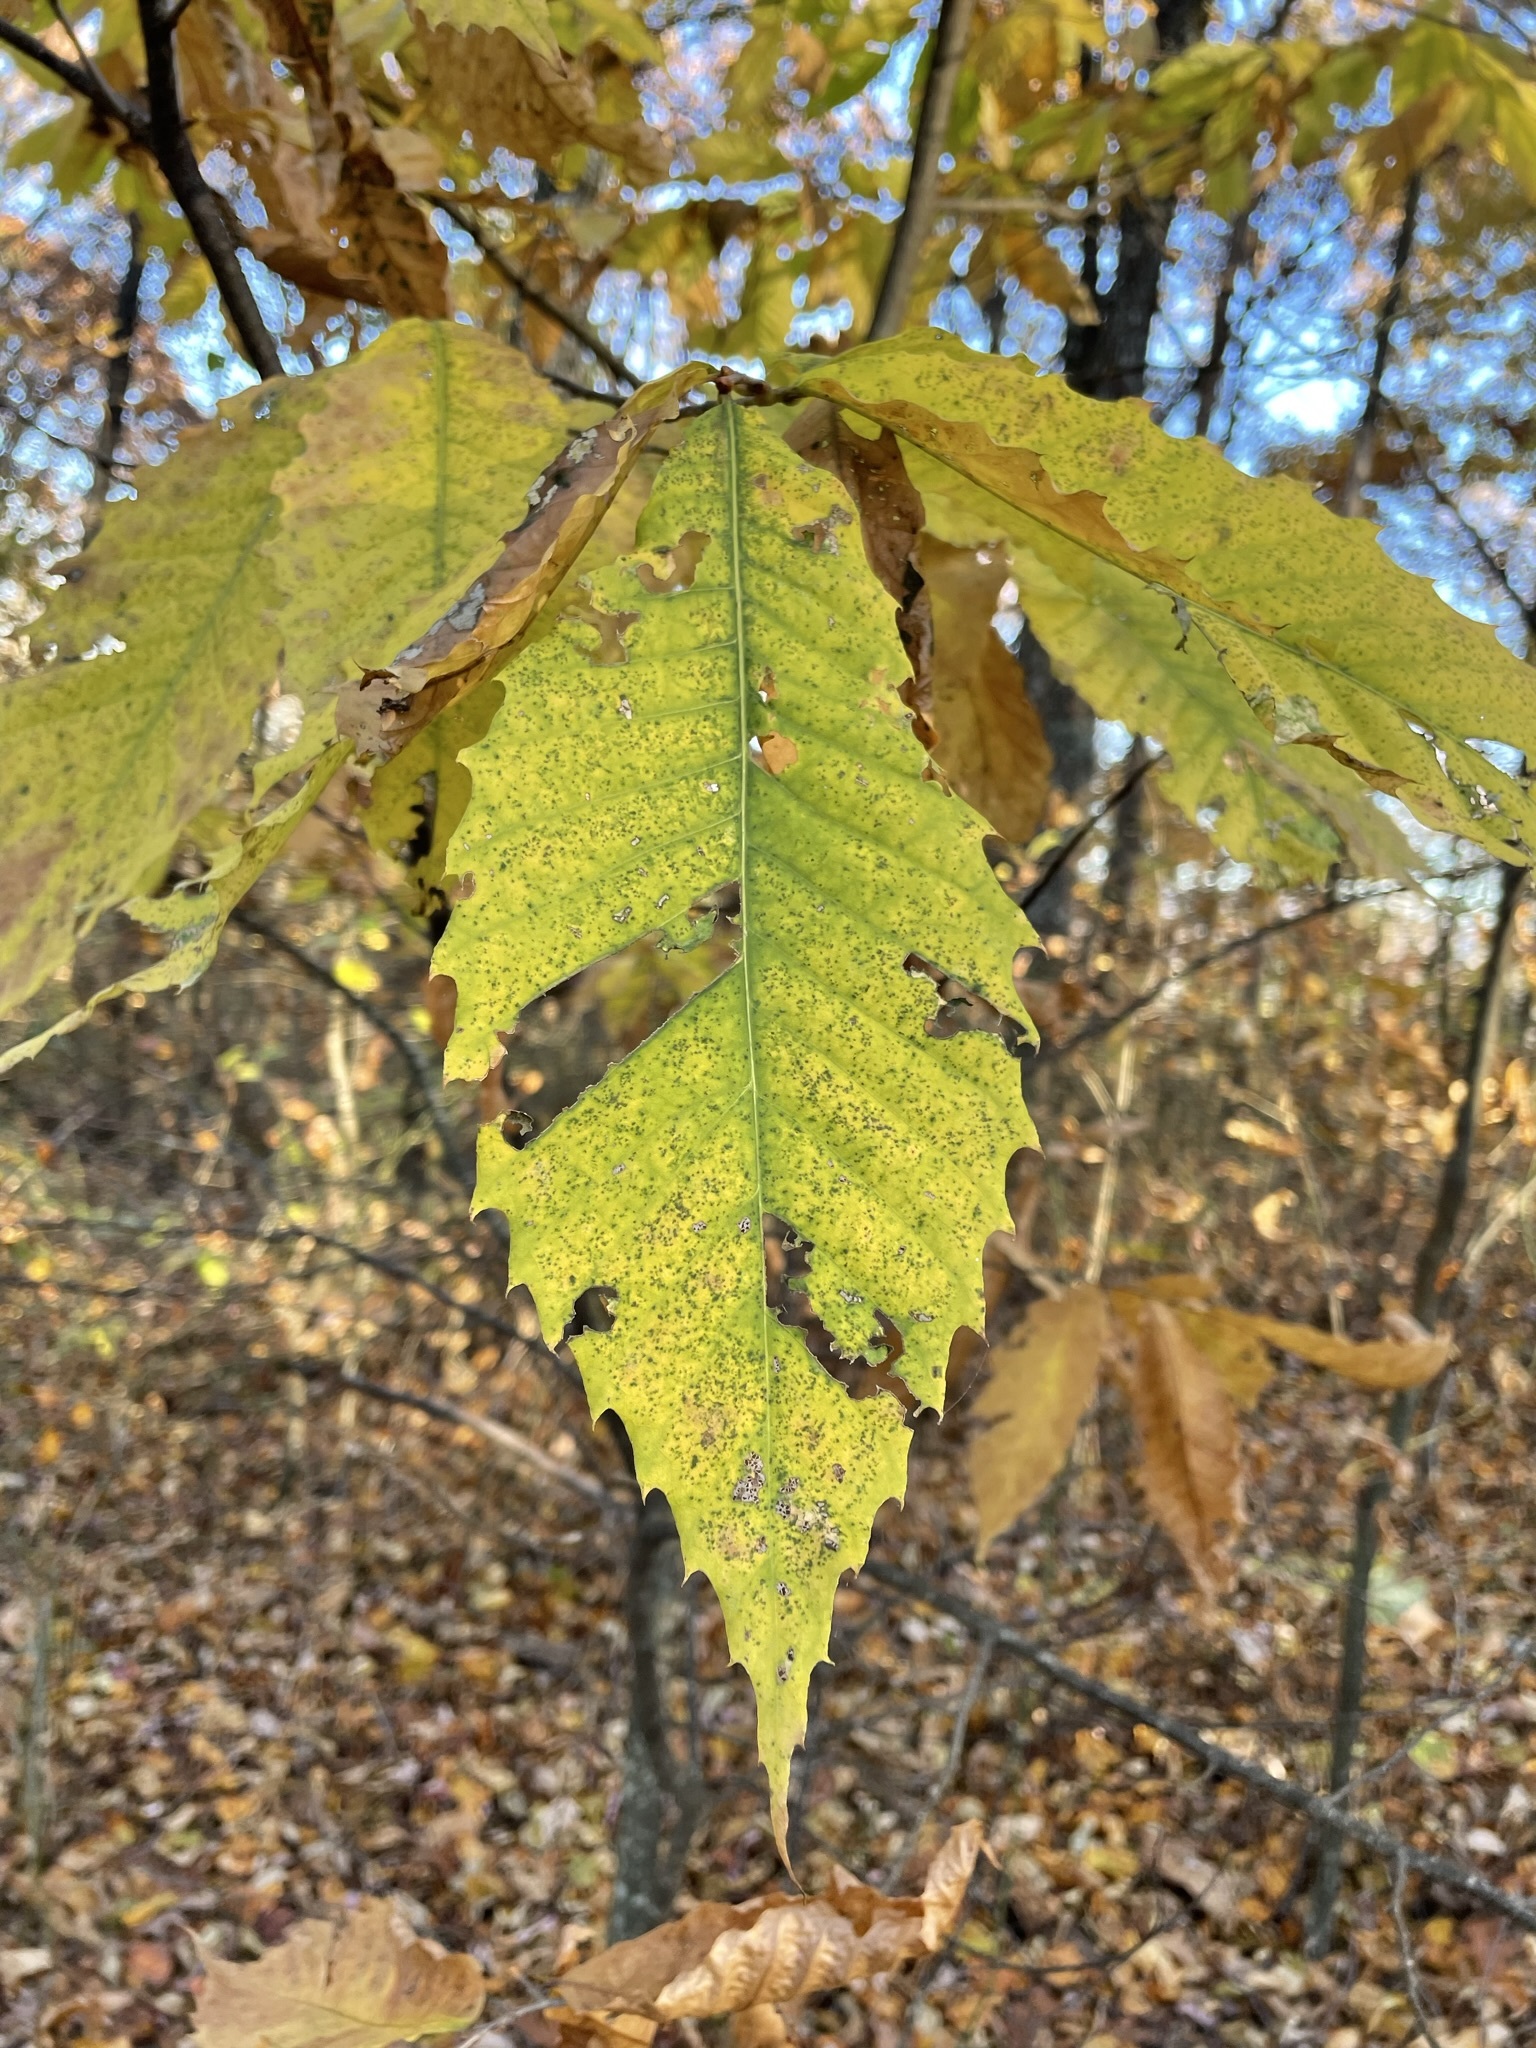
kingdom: Plantae
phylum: Tracheophyta
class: Magnoliopsida
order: Fagales
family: Fagaceae
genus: Castanea
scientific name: Castanea dentata
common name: American chestnut
